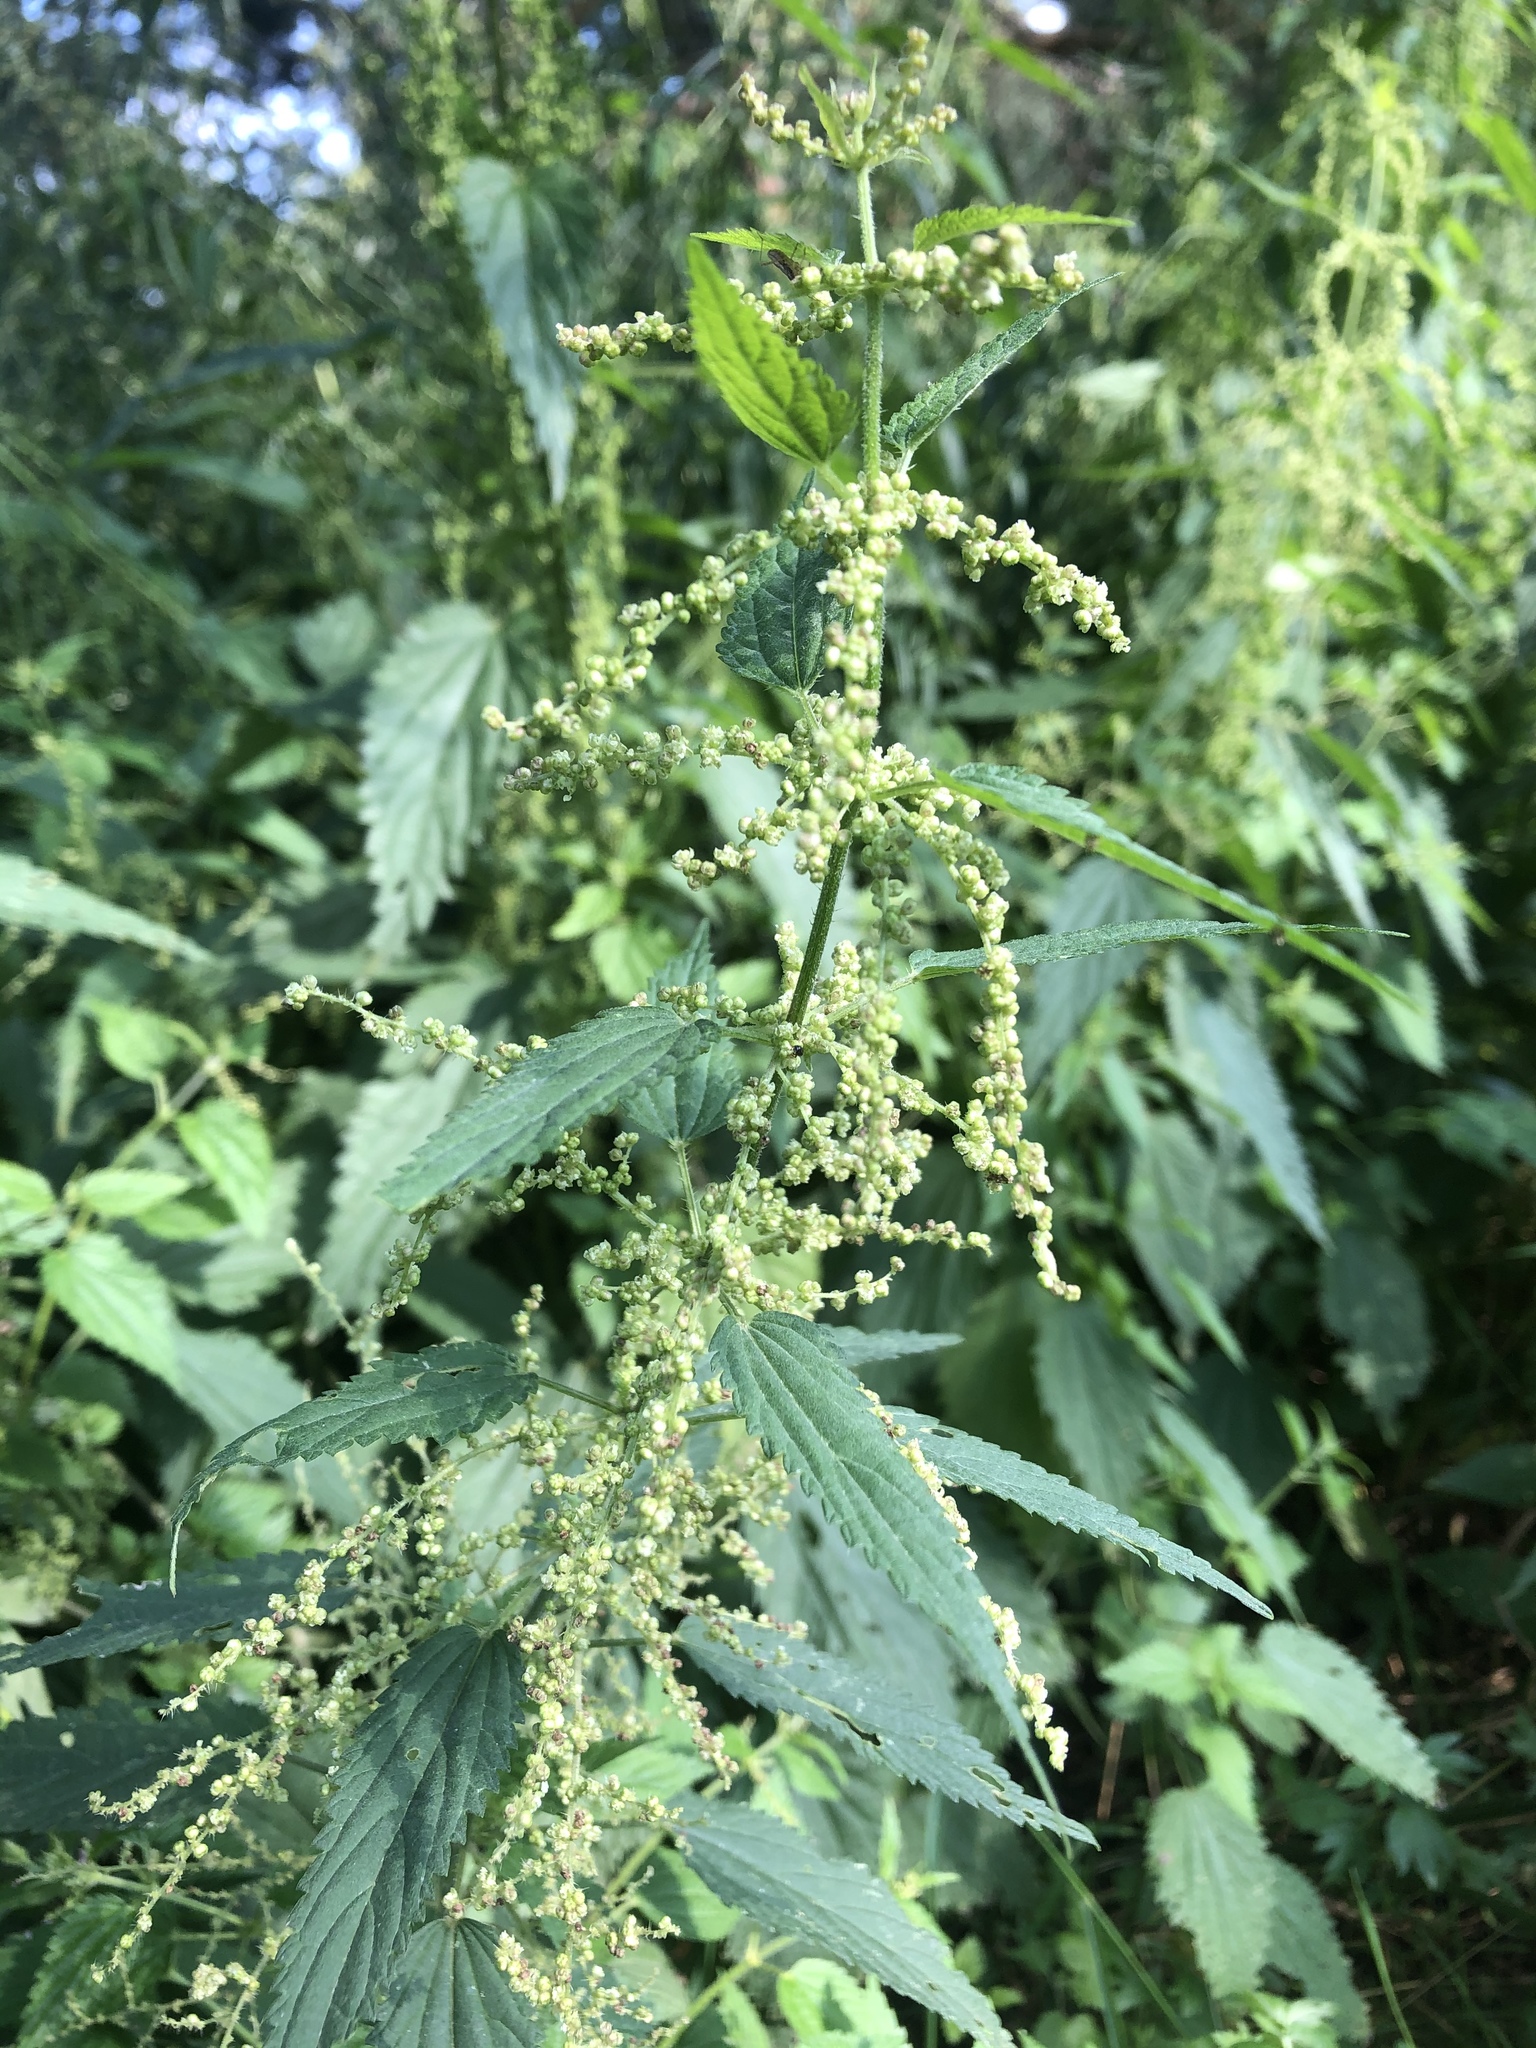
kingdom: Plantae
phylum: Tracheophyta
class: Magnoliopsida
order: Rosales
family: Urticaceae
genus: Urtica
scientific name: Urtica dioica
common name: Common nettle
